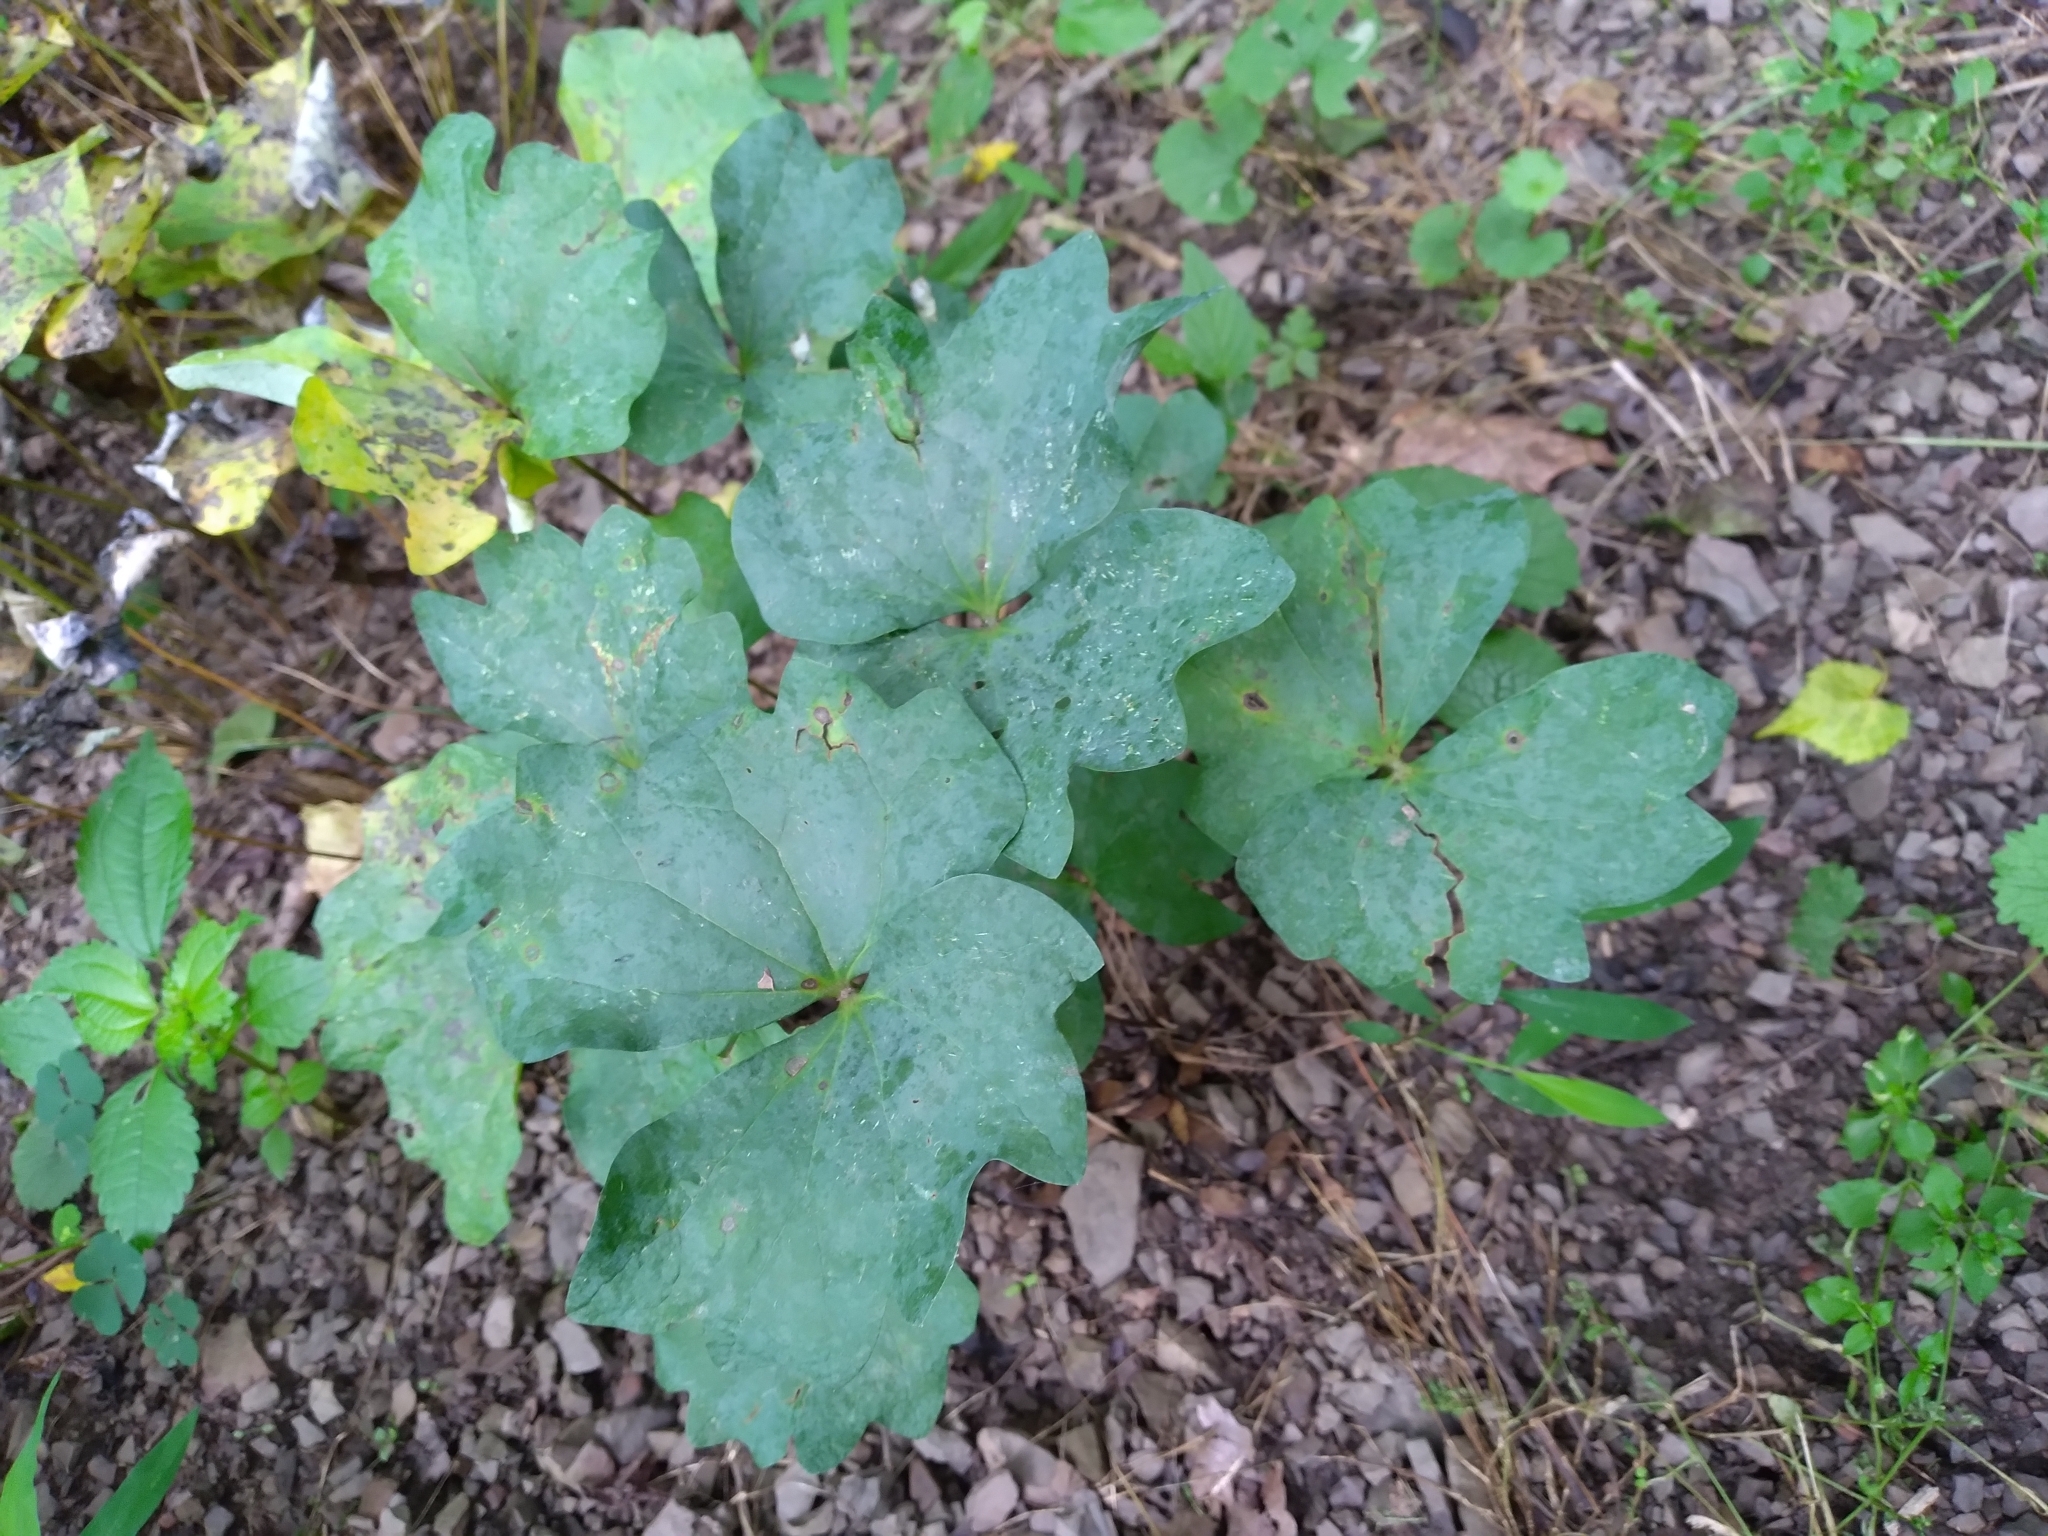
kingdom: Plantae
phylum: Tracheophyta
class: Magnoliopsida
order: Ranunculales
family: Berberidaceae
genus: Jeffersonia
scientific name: Jeffersonia diphylla
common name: Rheumatism-root
